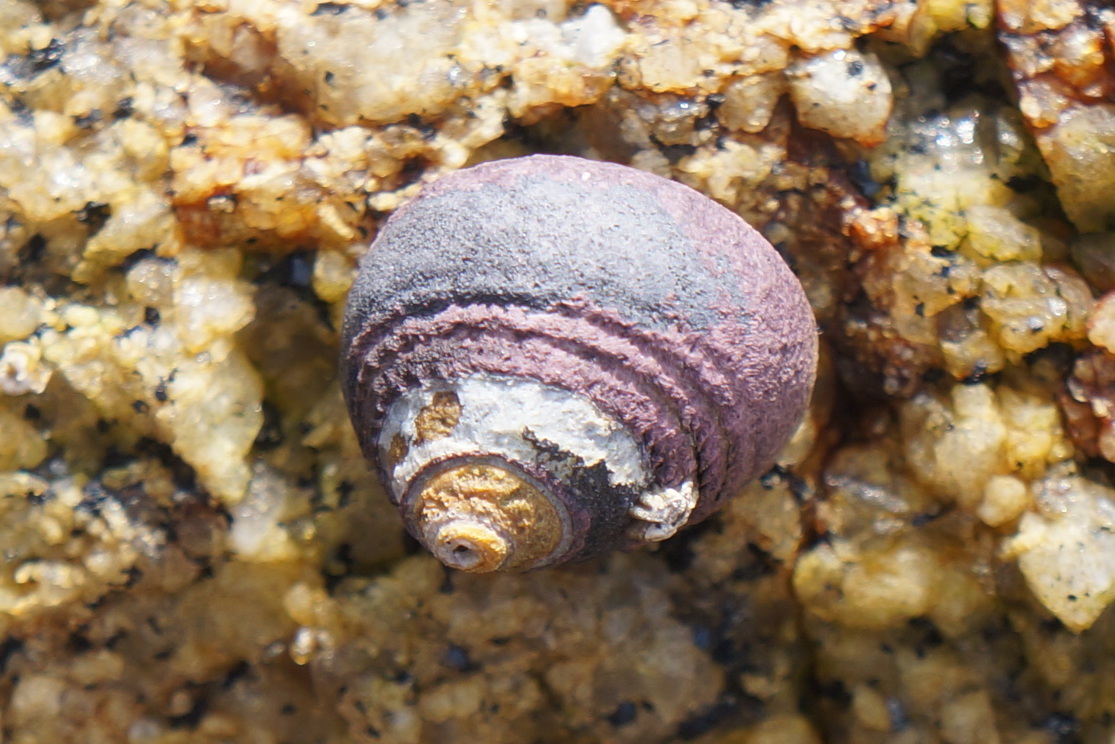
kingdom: Animalia
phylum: Mollusca
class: Gastropoda
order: Trochida
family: Tegulidae
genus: Tegula
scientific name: Tegula funebralis
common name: Black tegula
